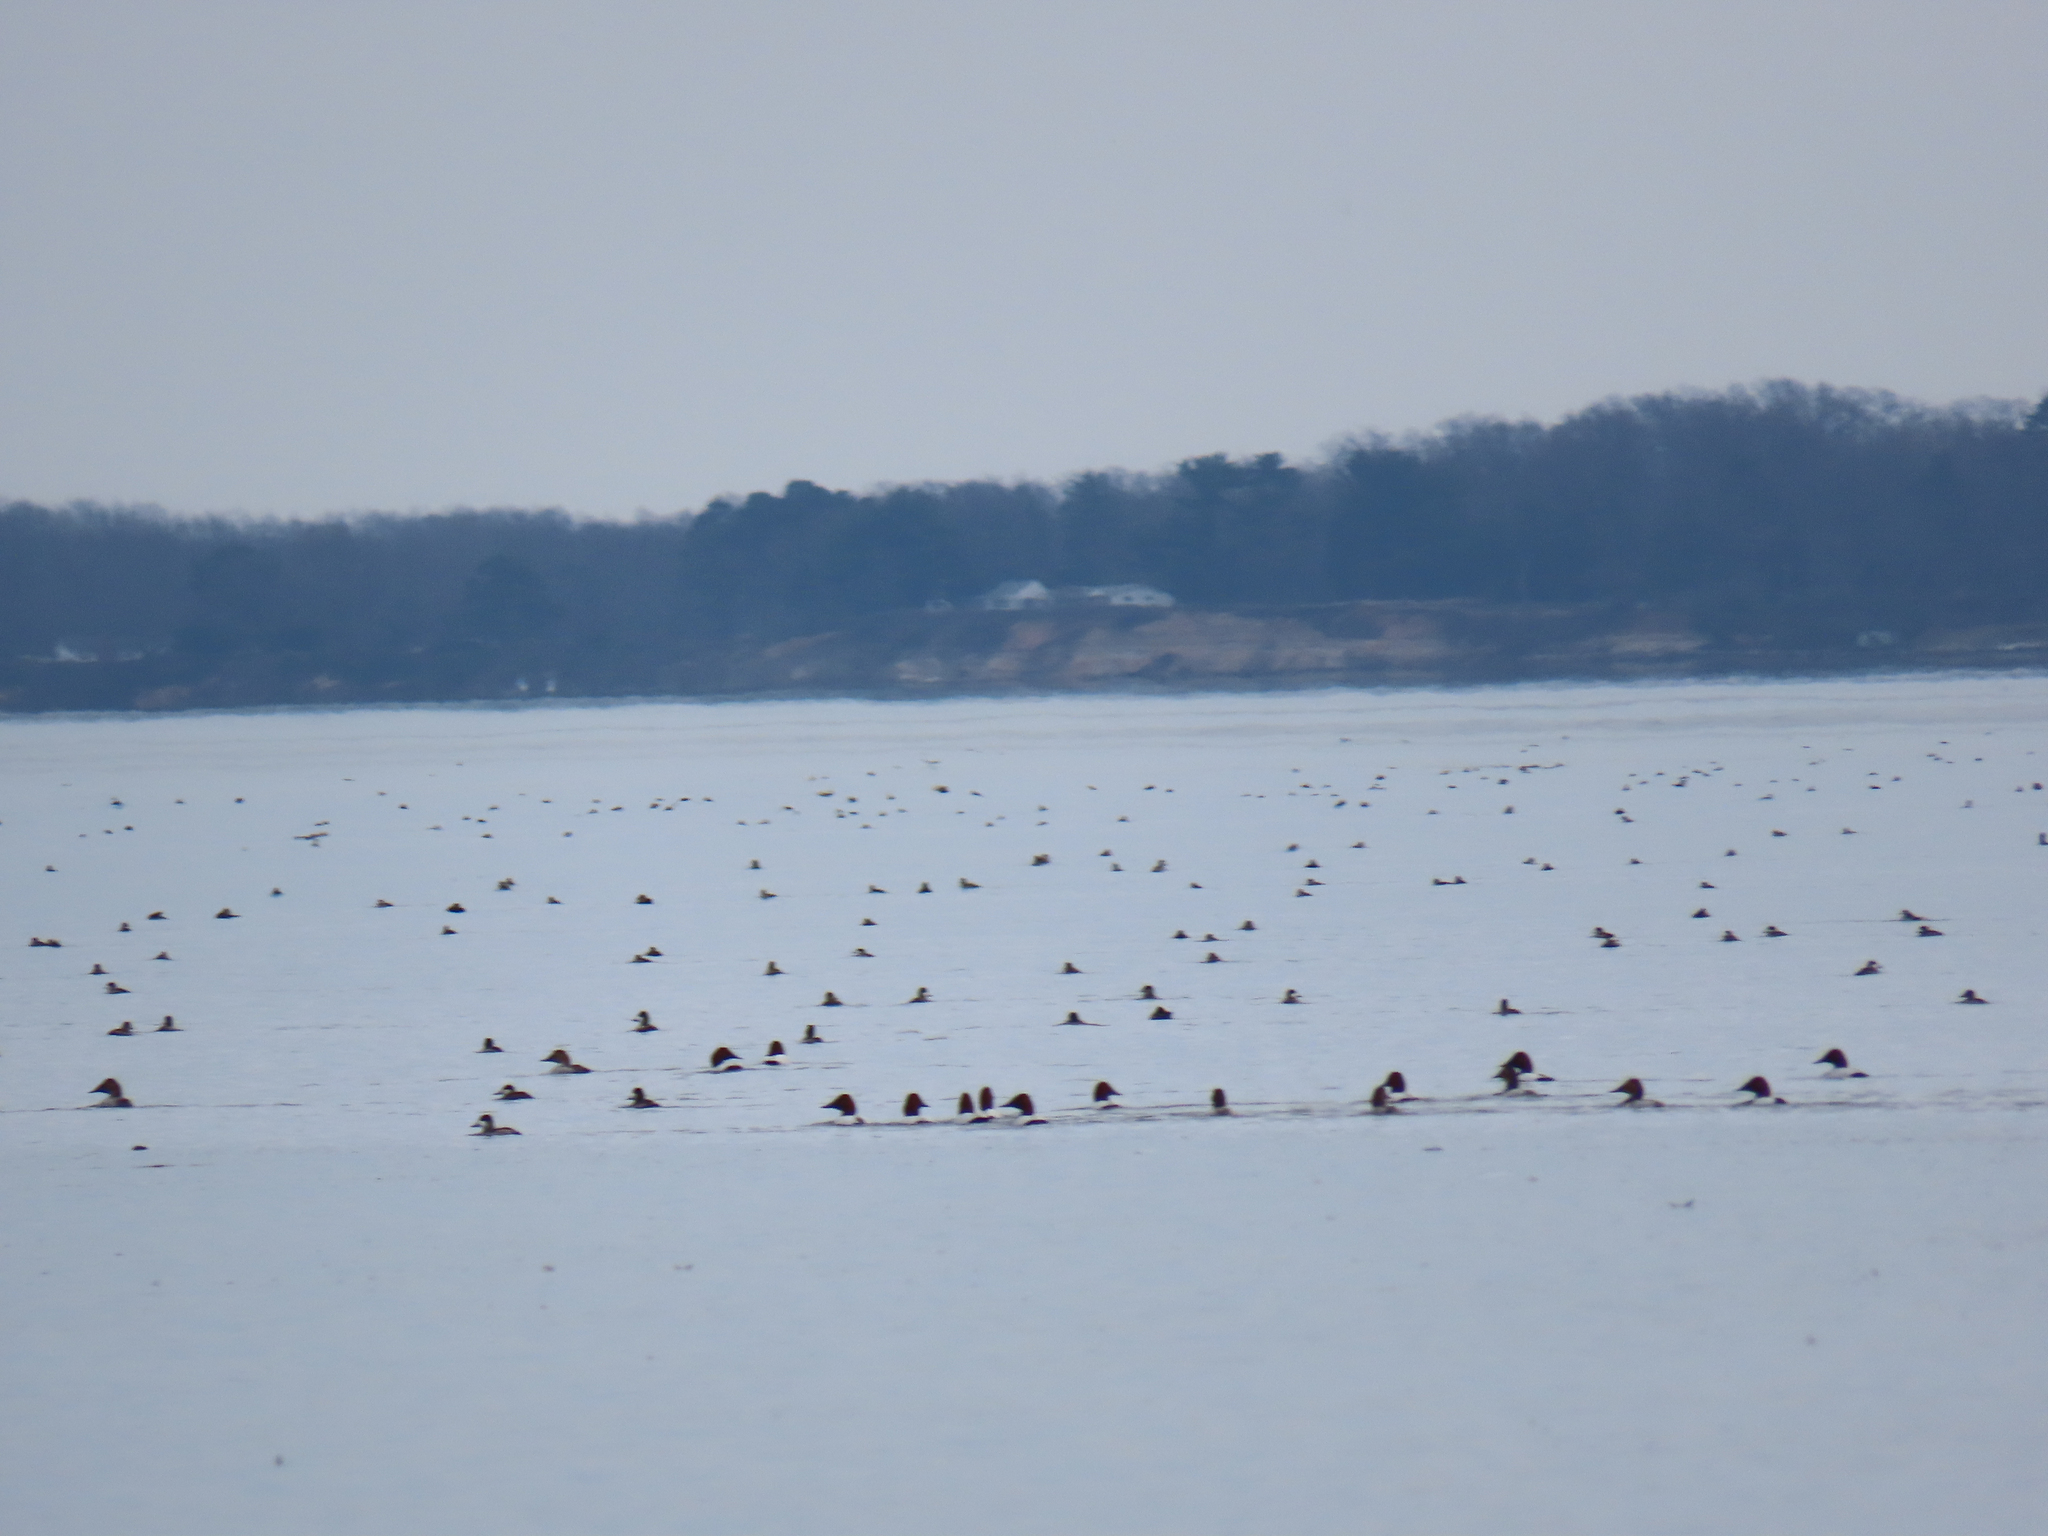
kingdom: Animalia
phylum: Chordata
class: Aves
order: Anseriformes
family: Anatidae
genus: Cygnus
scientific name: Cygnus columbianus
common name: Tundra swan
